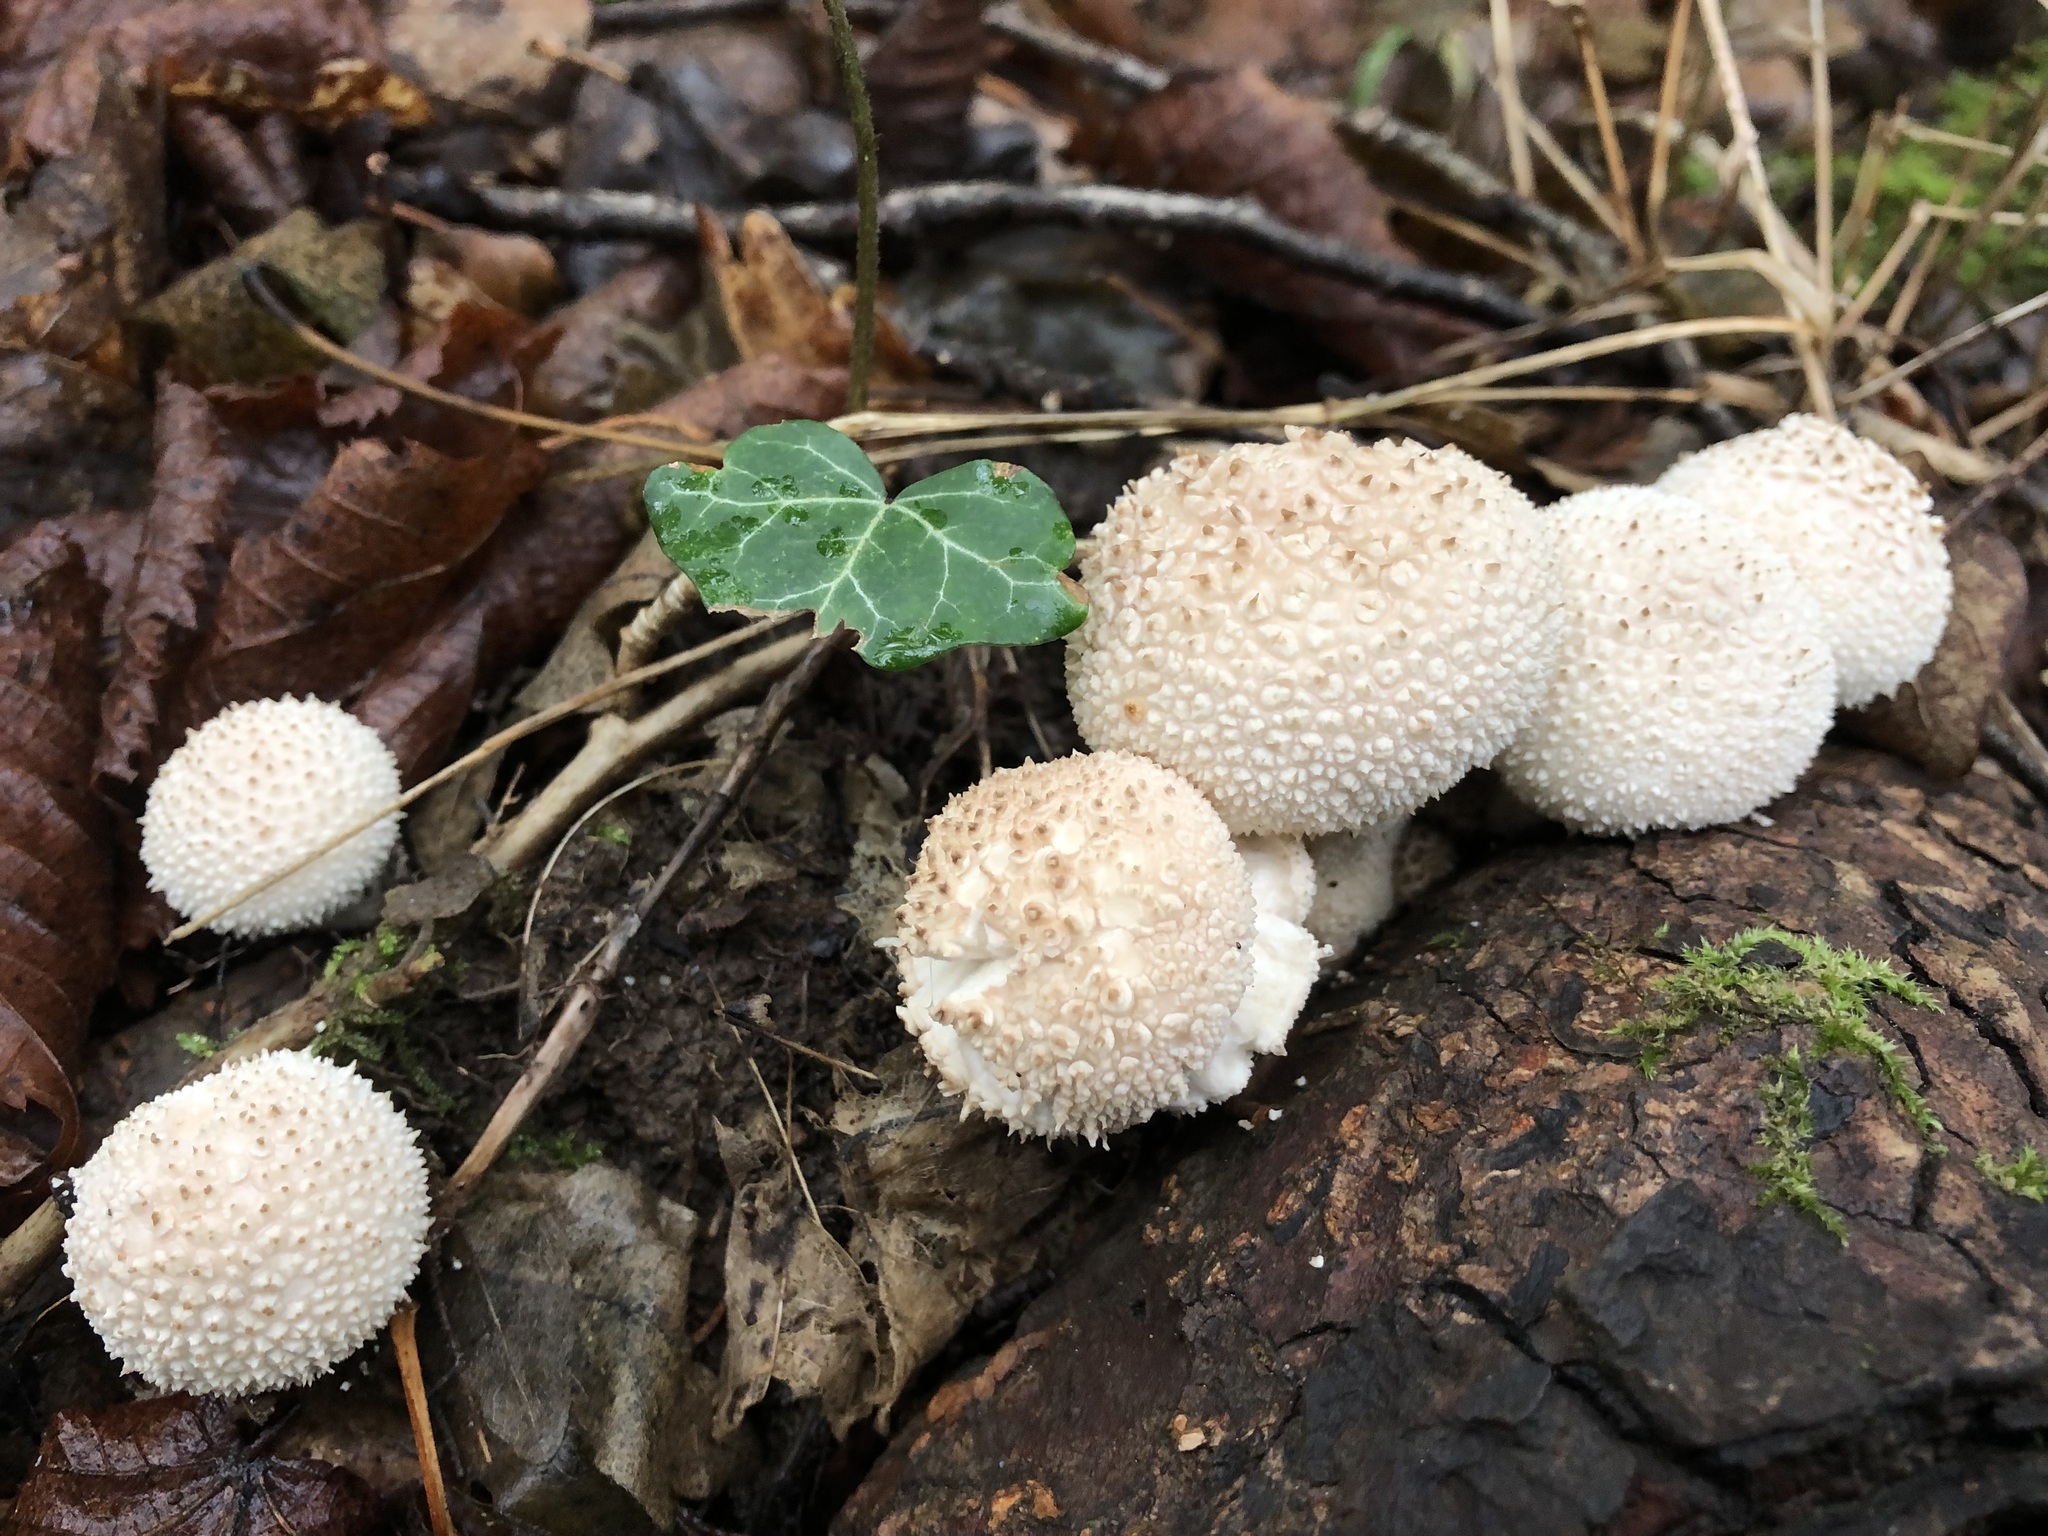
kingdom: Fungi
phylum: Basidiomycota
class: Agaricomycetes
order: Agaricales
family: Lycoperdaceae
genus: Lycoperdon
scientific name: Lycoperdon perlatum
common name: Common puffball
